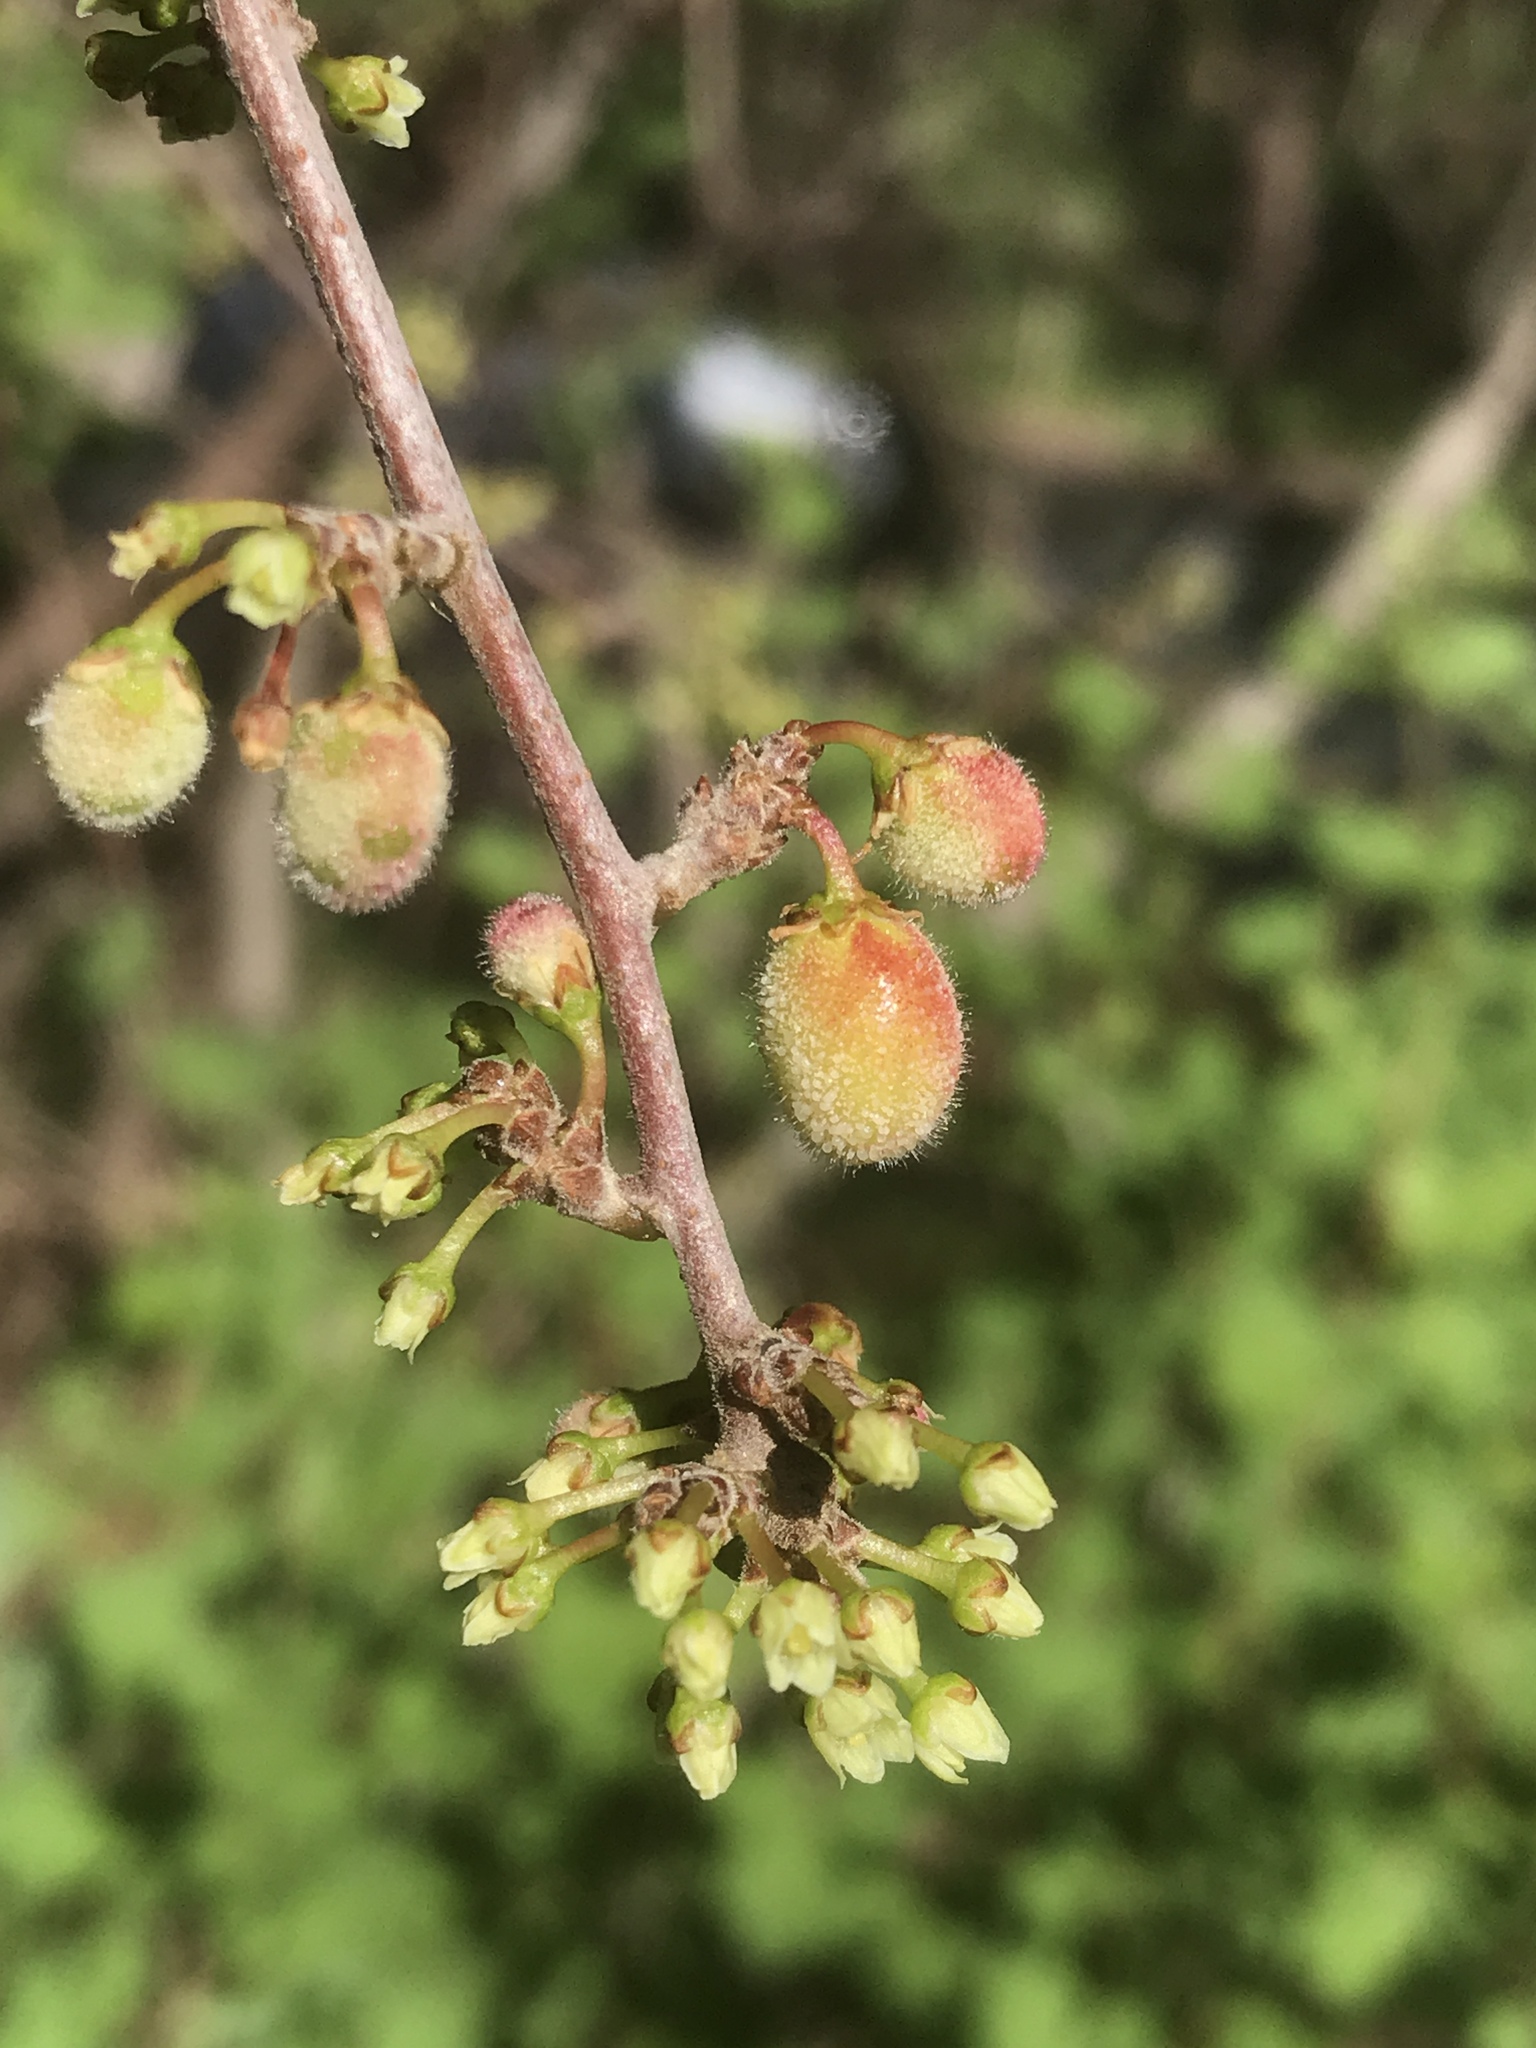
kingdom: Plantae
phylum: Tracheophyta
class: Magnoliopsida
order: Sapindales
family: Anacardiaceae
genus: Rhus
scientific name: Rhus aromatica
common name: Aromatic sumac
